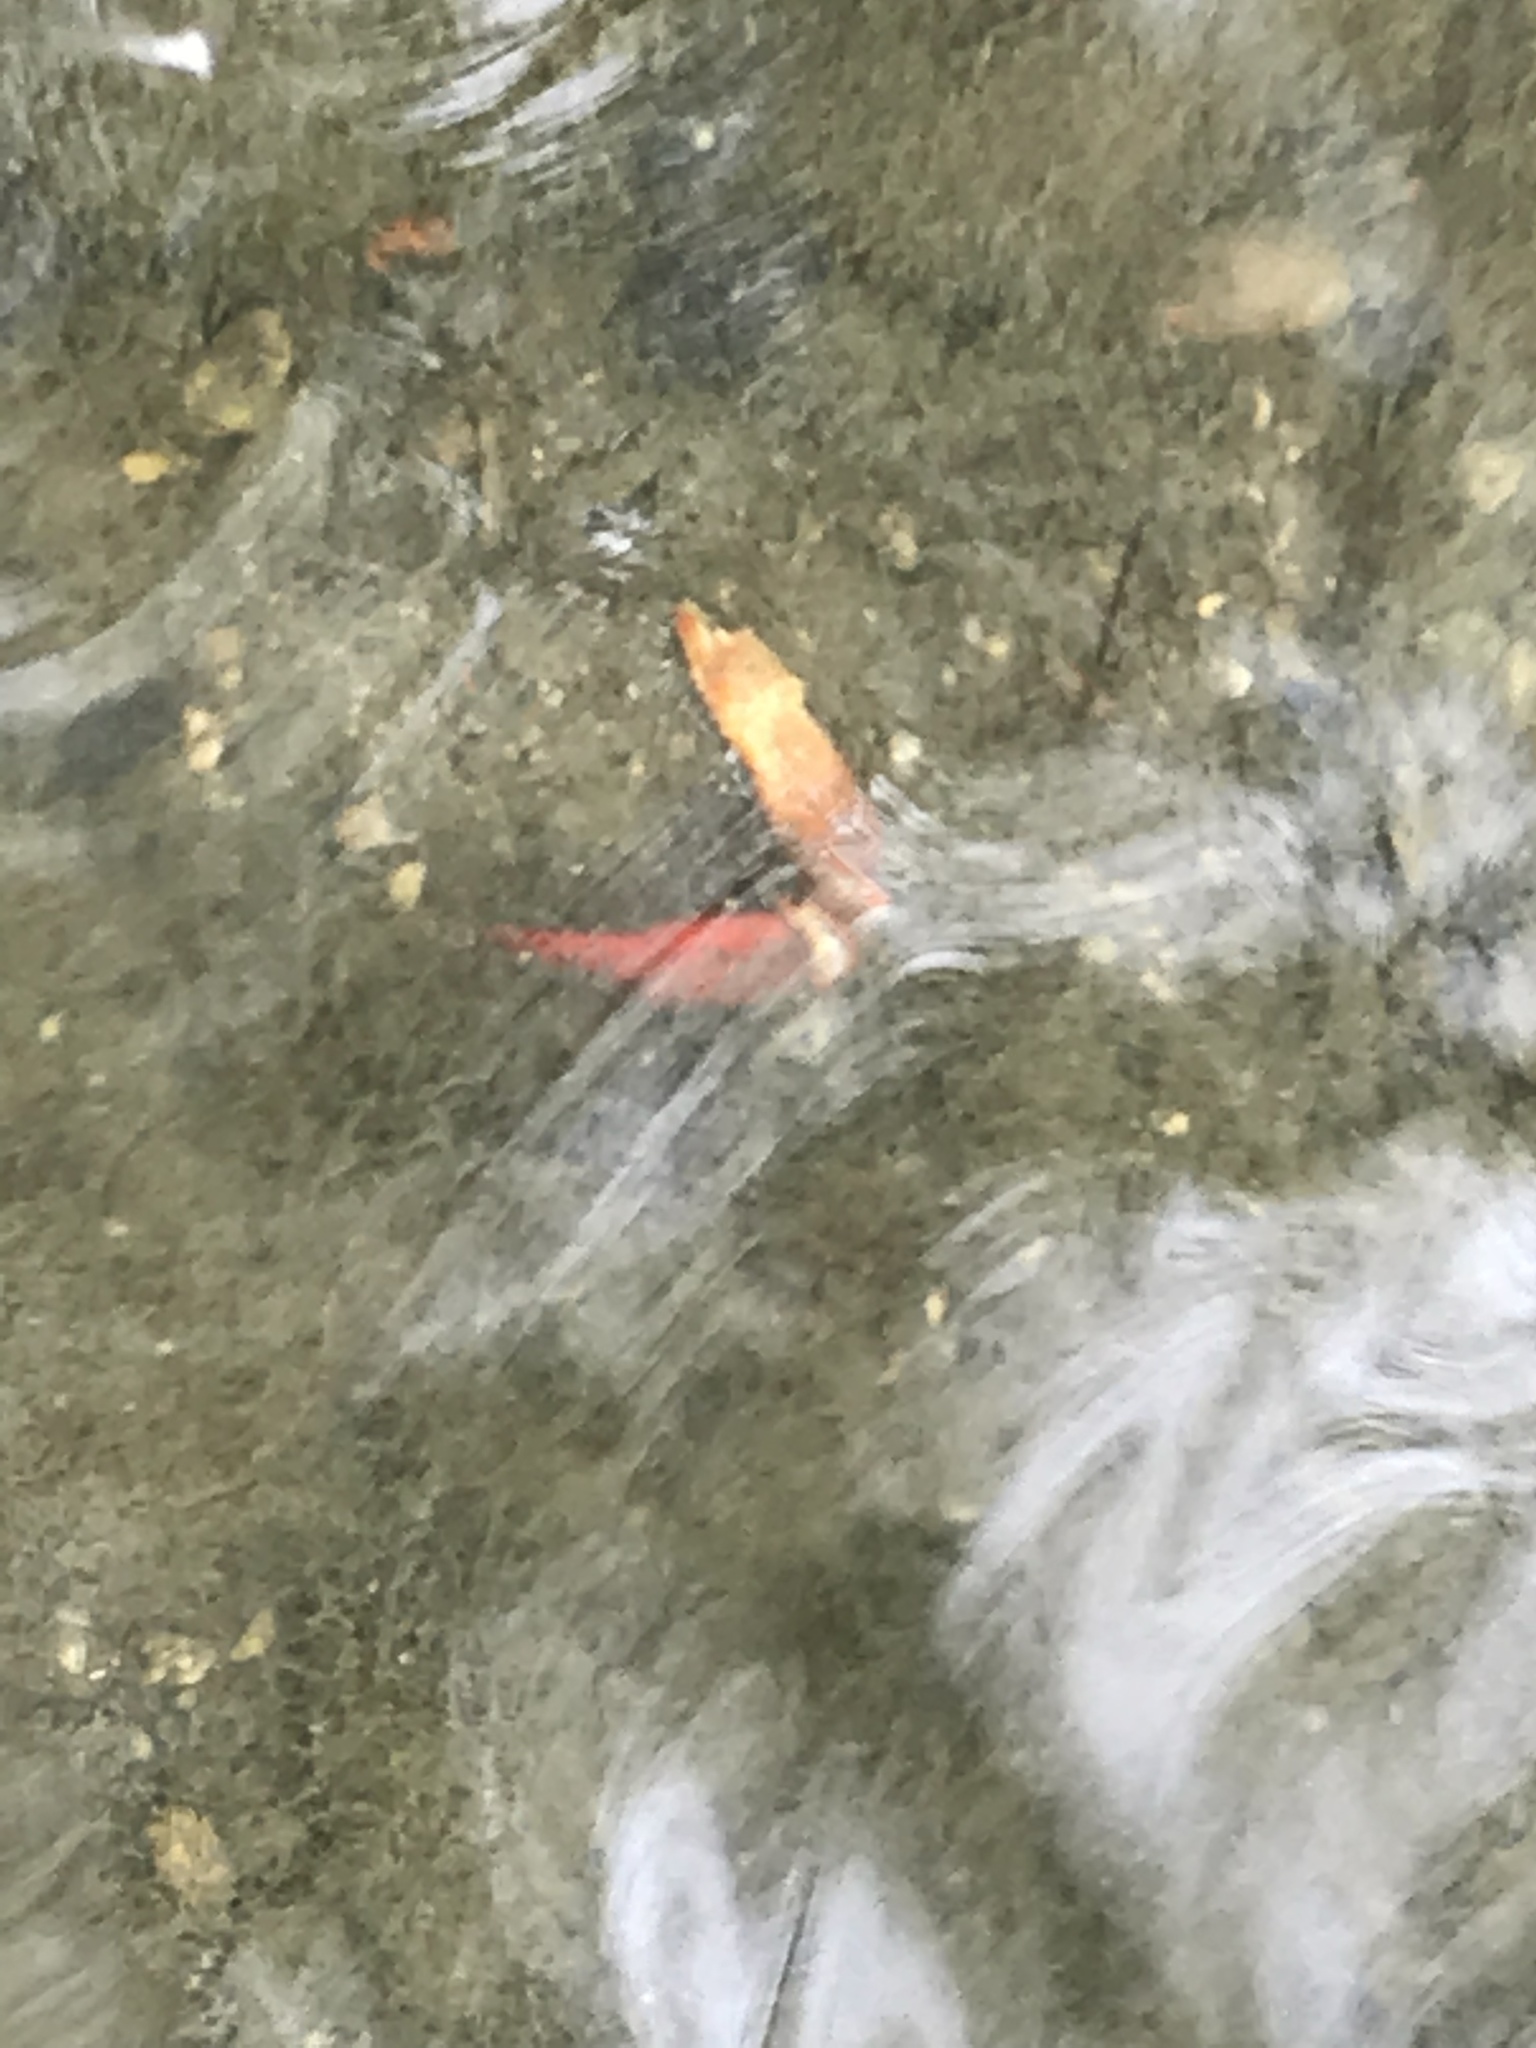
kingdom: Animalia
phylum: Arthropoda
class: Malacostraca
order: Decapoda
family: Cambaridae
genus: Procambarus
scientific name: Procambarus clarkii
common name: Red swamp crayfish
